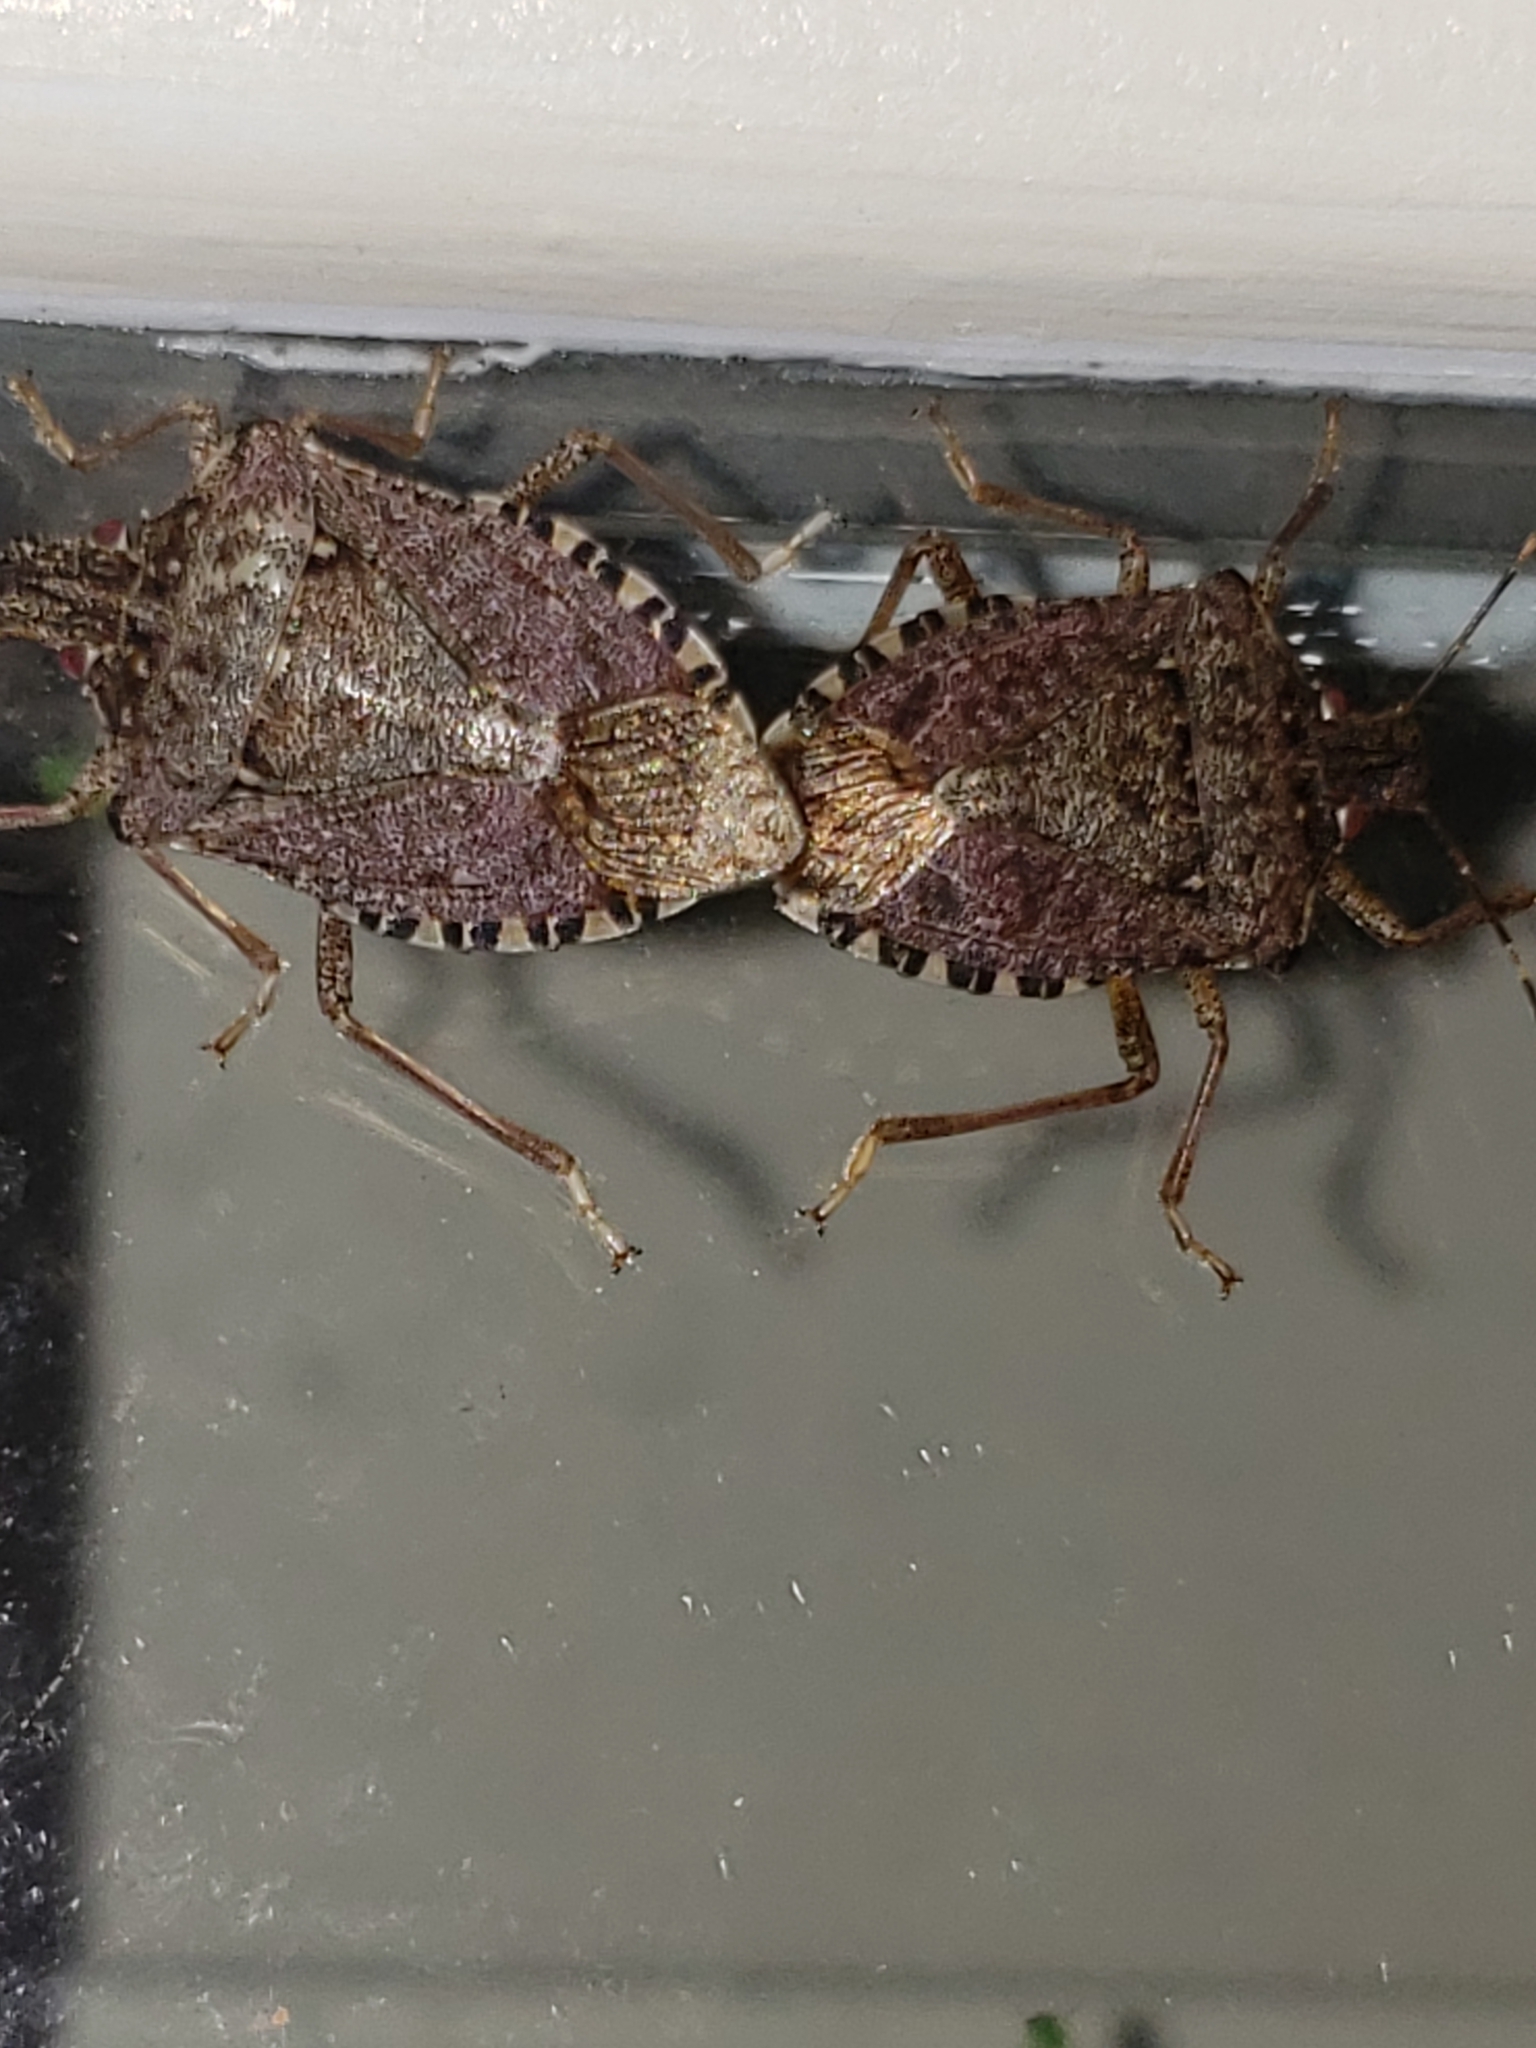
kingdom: Animalia
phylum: Arthropoda
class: Insecta
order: Hemiptera
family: Pentatomidae
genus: Halyomorpha
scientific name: Halyomorpha halys
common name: Brown marmorated stink bug
